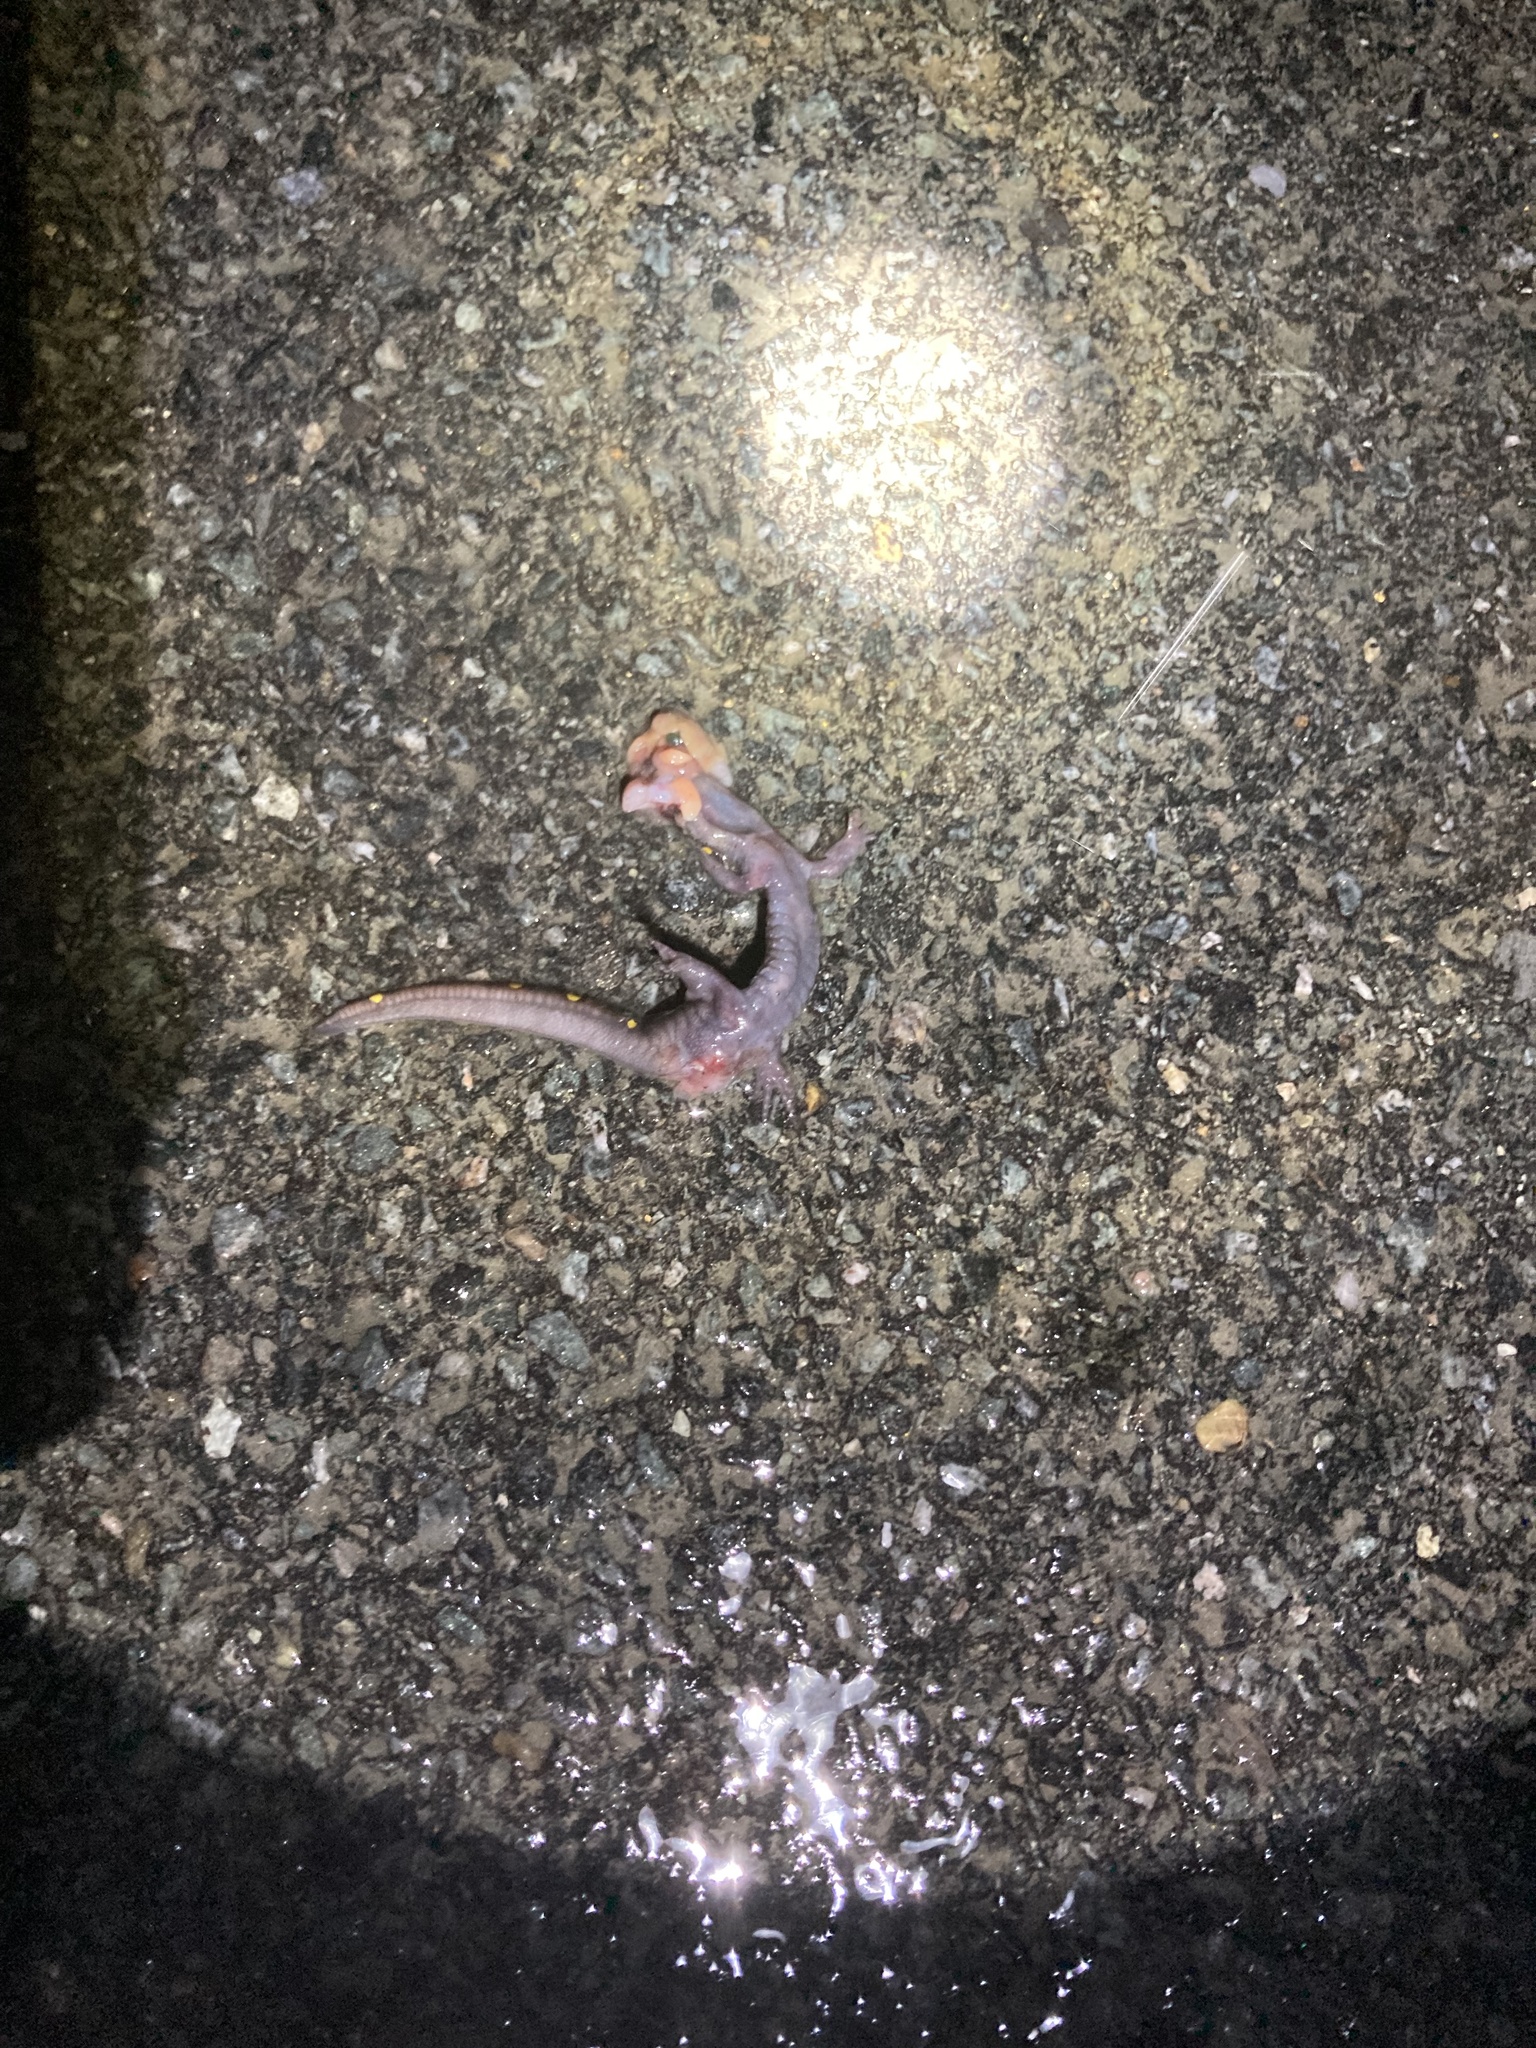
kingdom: Animalia
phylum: Chordata
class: Amphibia
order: Caudata
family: Ambystomatidae
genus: Ambystoma
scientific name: Ambystoma maculatum
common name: Spotted salamander
